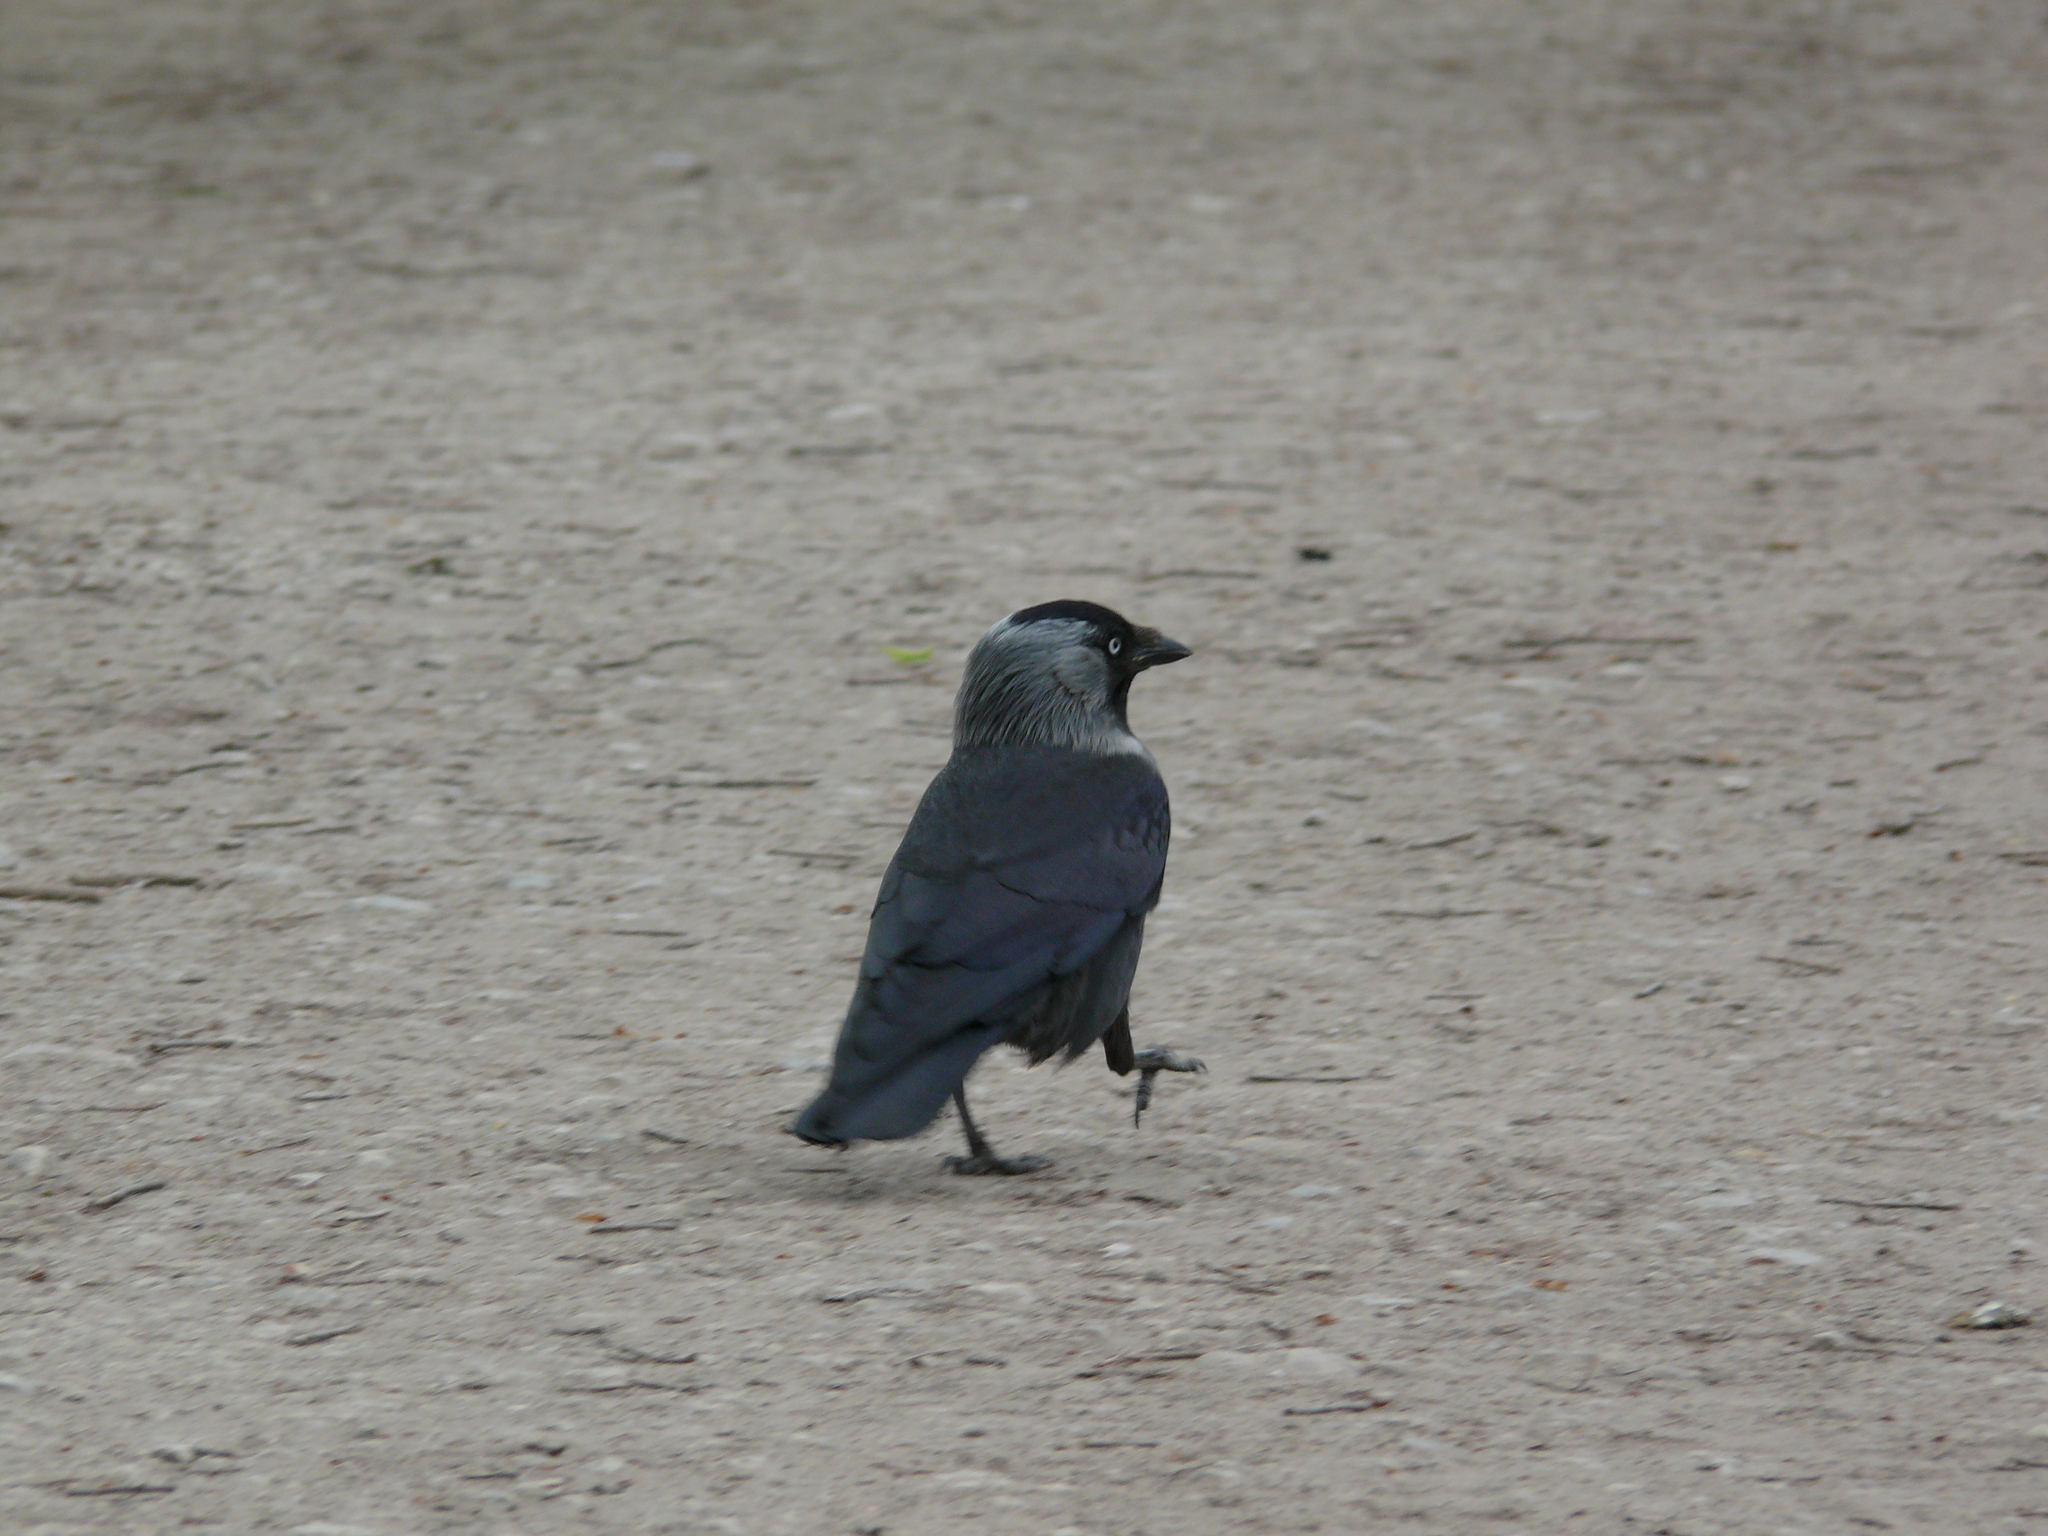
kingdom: Animalia
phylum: Chordata
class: Aves
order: Passeriformes
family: Corvidae
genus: Coloeus
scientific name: Coloeus monedula
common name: Western jackdaw
